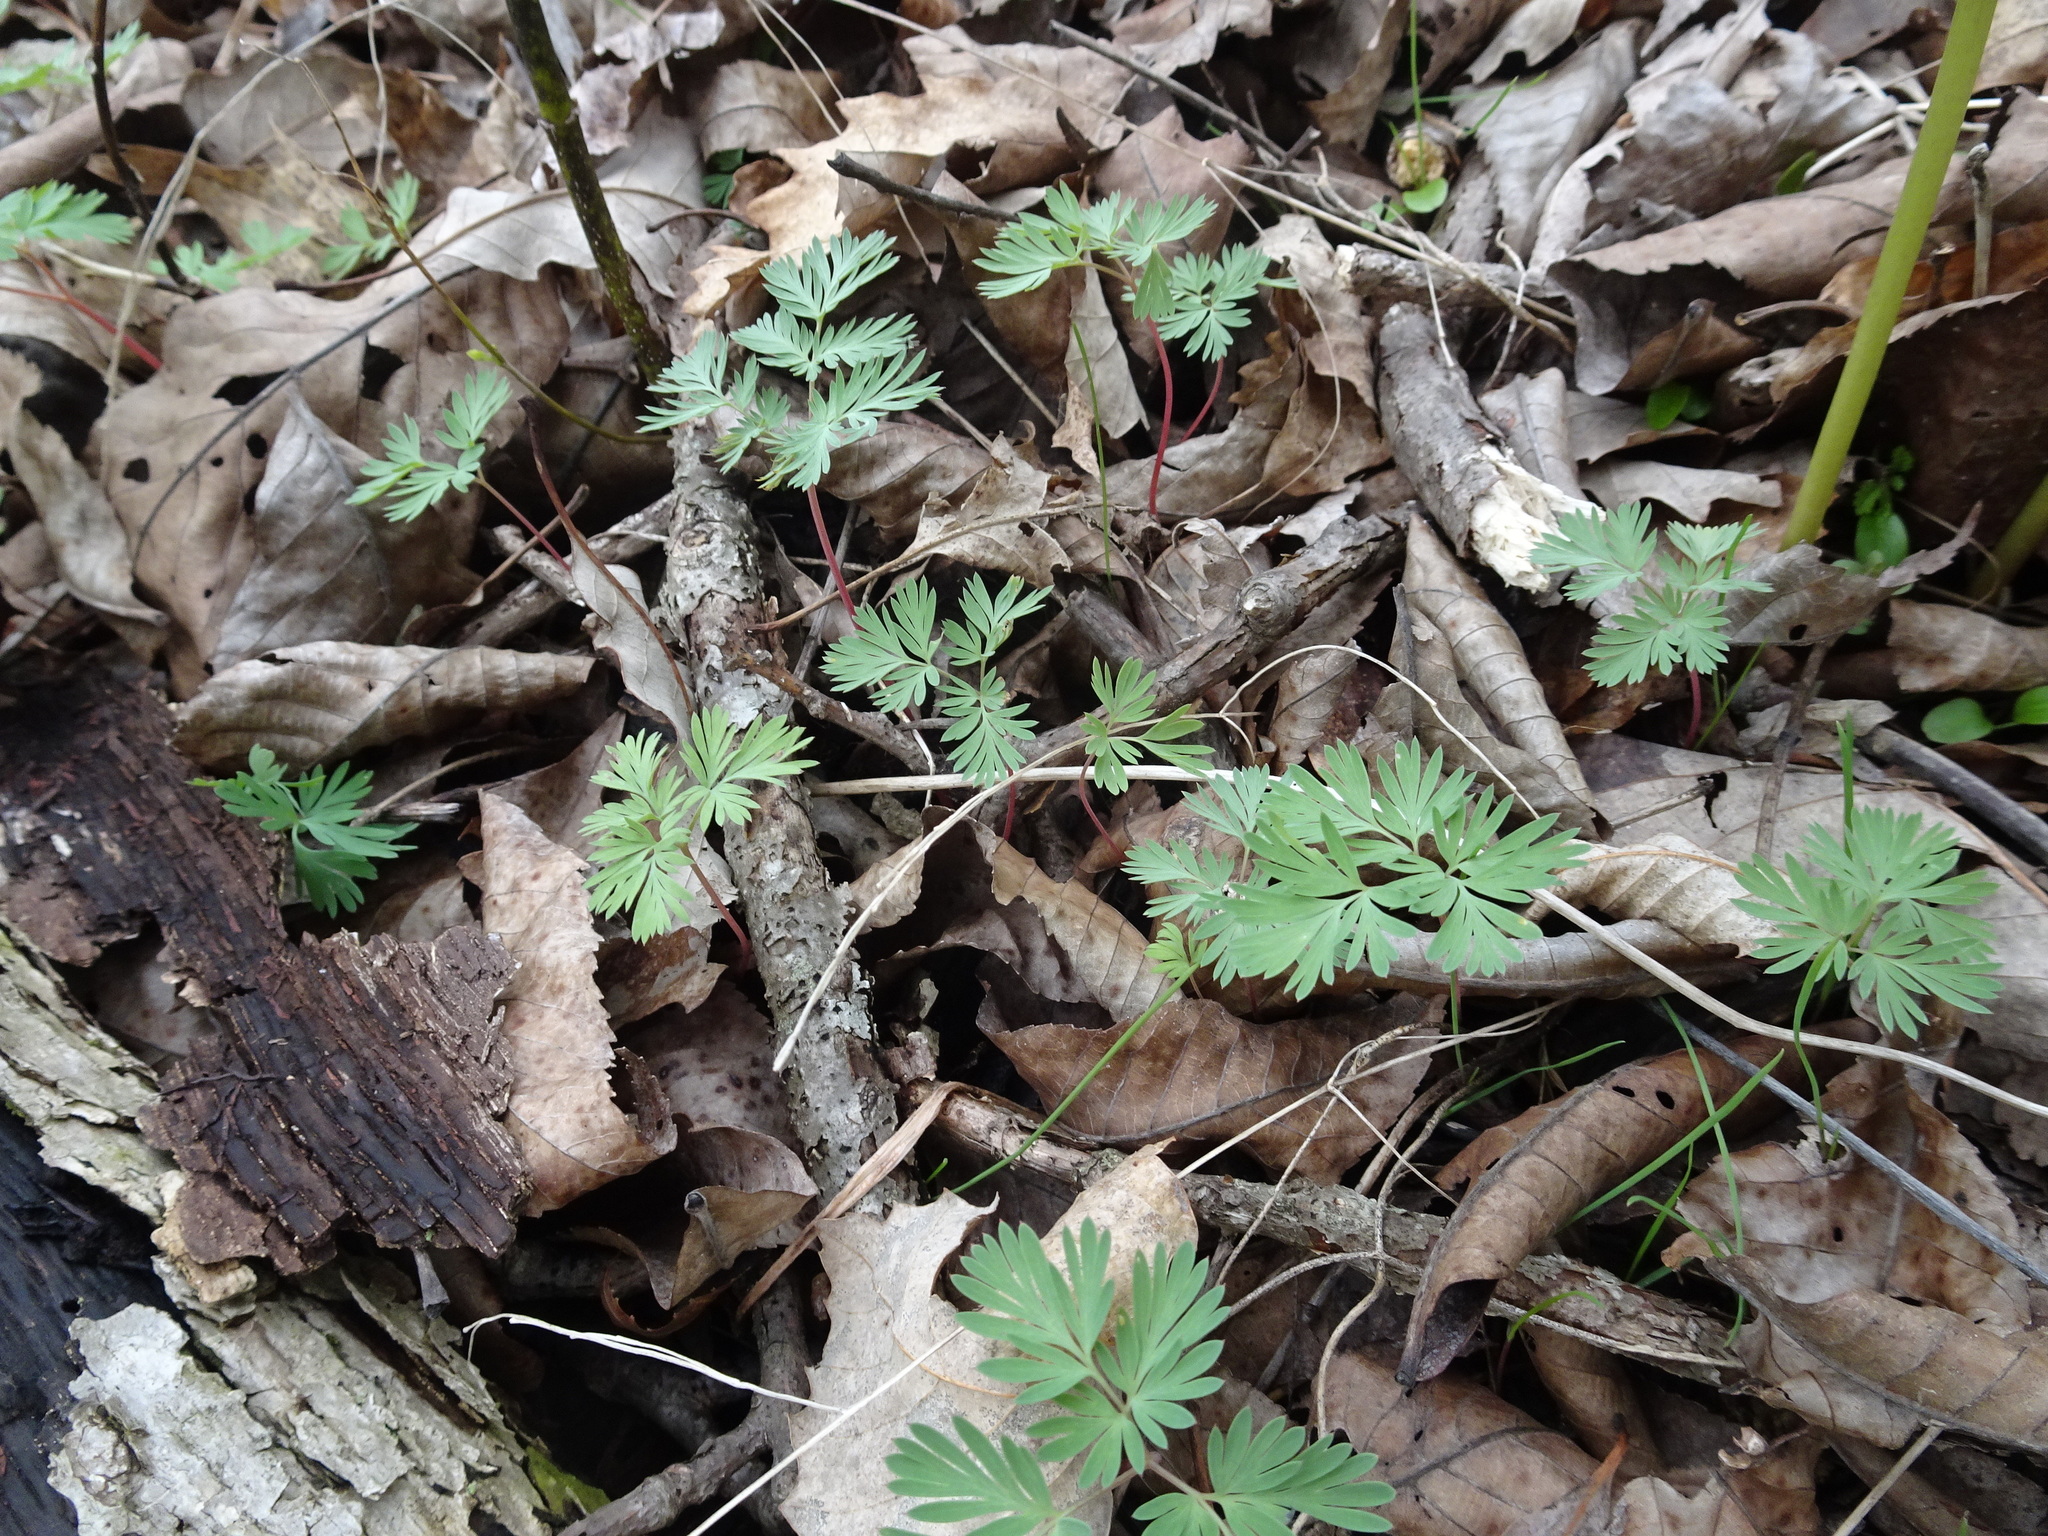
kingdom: Plantae
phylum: Tracheophyta
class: Magnoliopsida
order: Ranunculales
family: Papaveraceae
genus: Dicentra
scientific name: Dicentra cucullaria
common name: Dutchman's breeches
